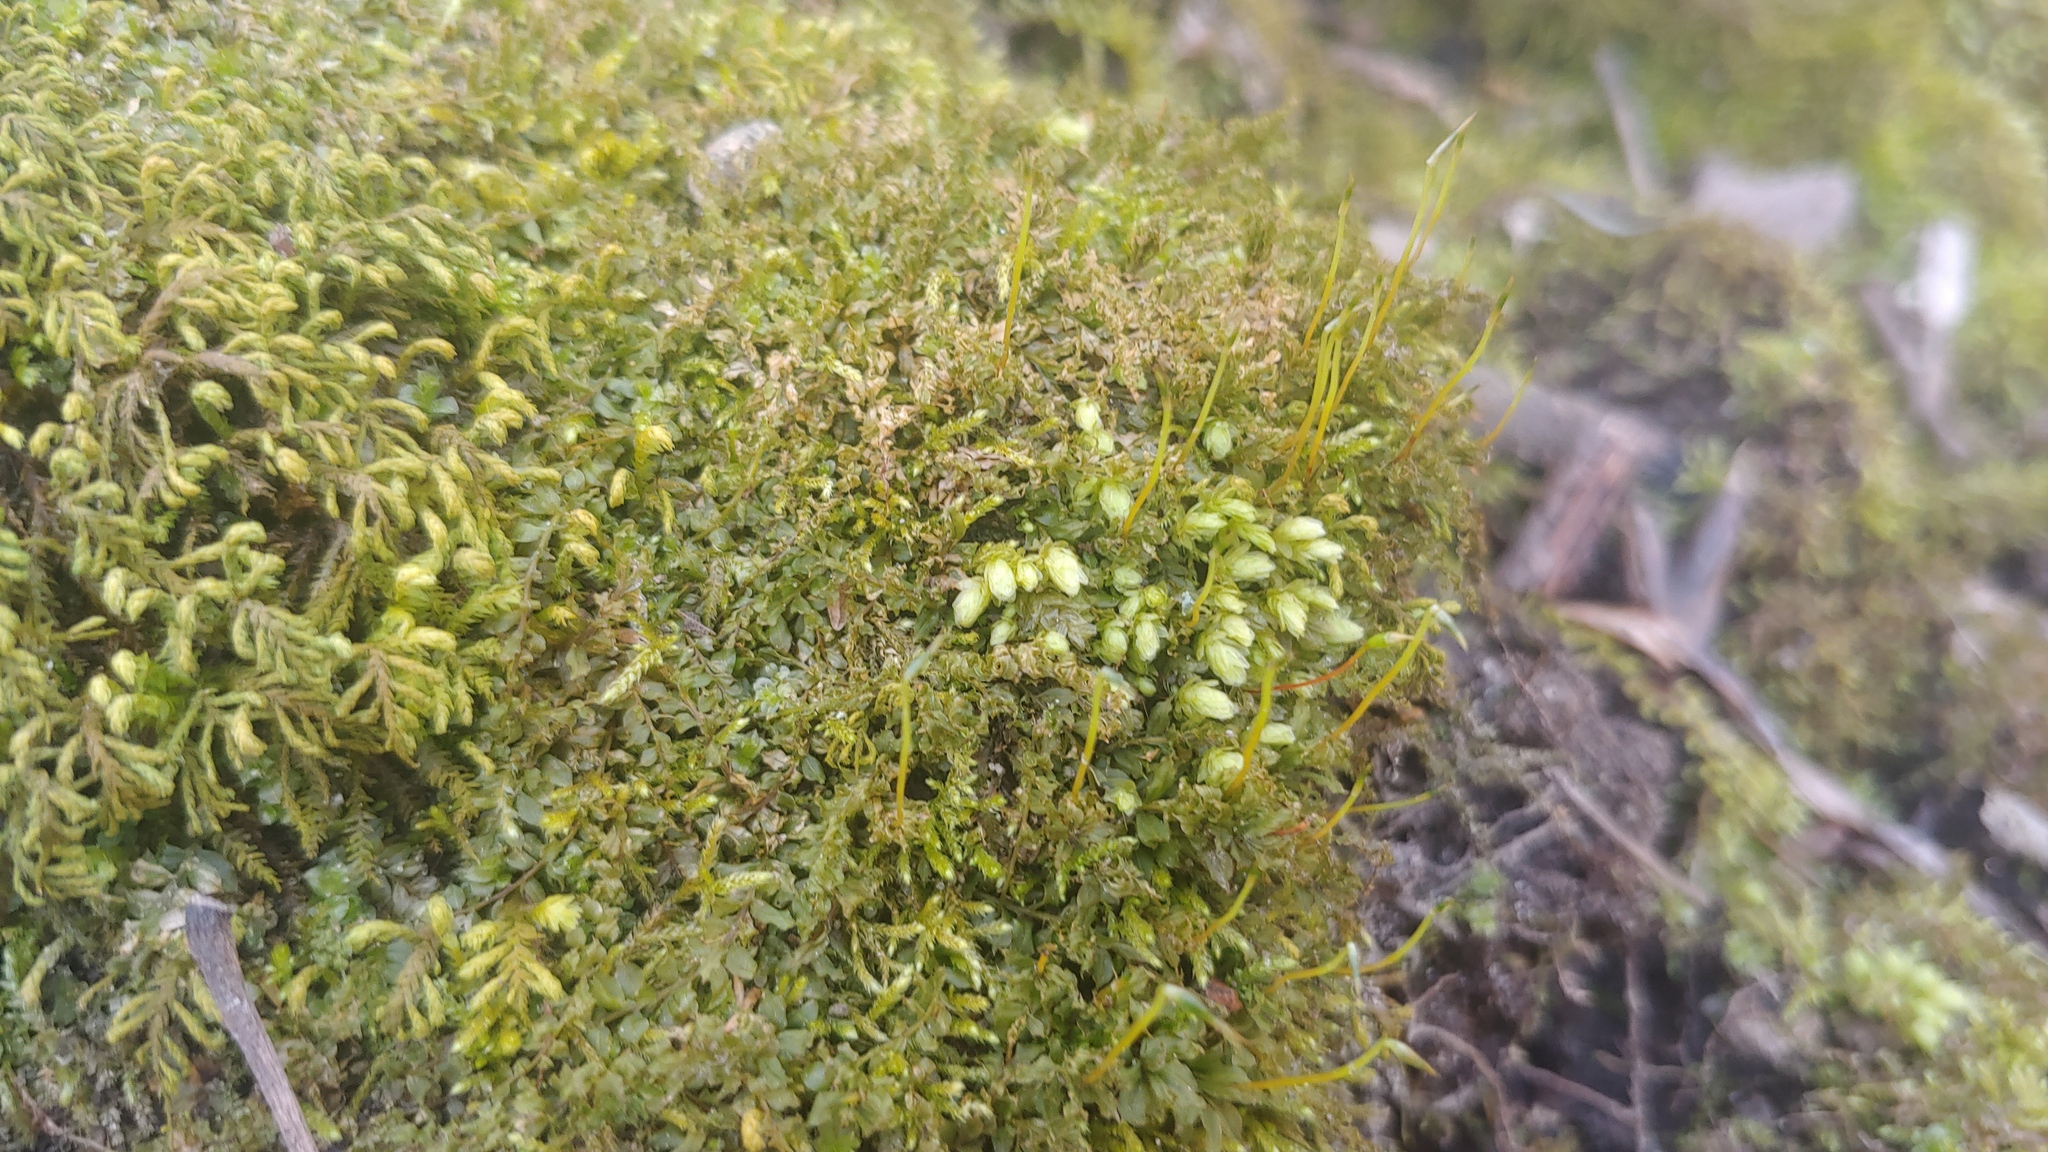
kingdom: Plantae
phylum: Bryophyta
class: Bryopsida
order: Aulacomniales
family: Aulacomniaceae
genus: Aulacomnium
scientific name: Aulacomnium heterostichum
